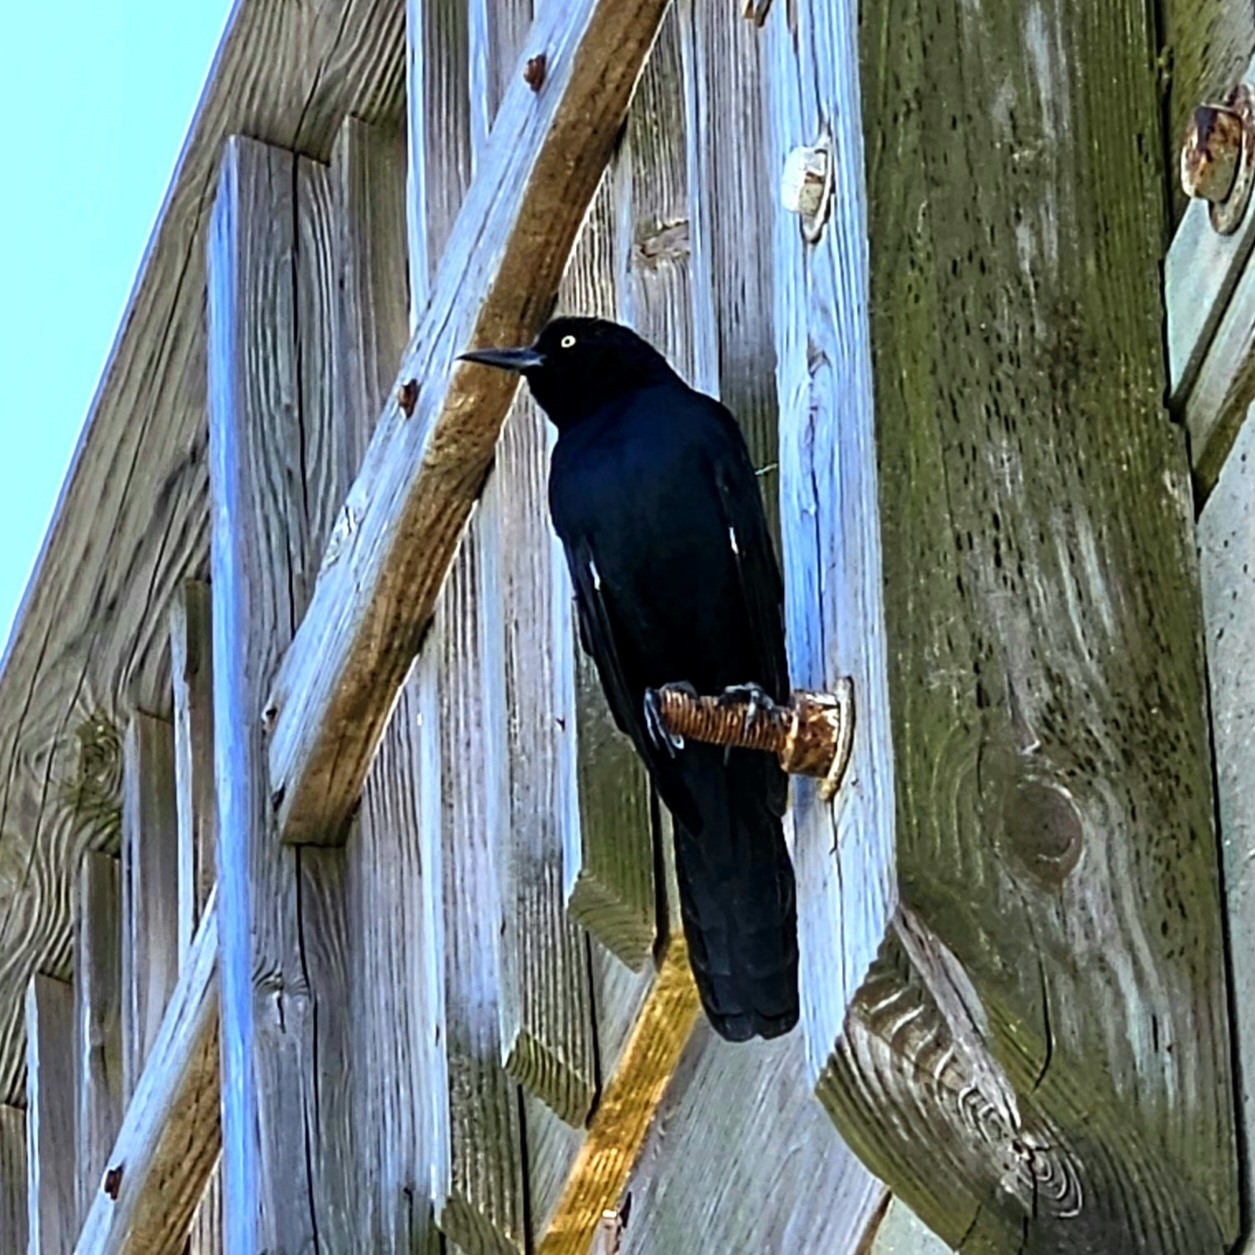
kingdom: Animalia
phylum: Chordata
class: Aves
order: Passeriformes
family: Icteridae
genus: Quiscalus
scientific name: Quiscalus major
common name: Boat-tailed grackle
